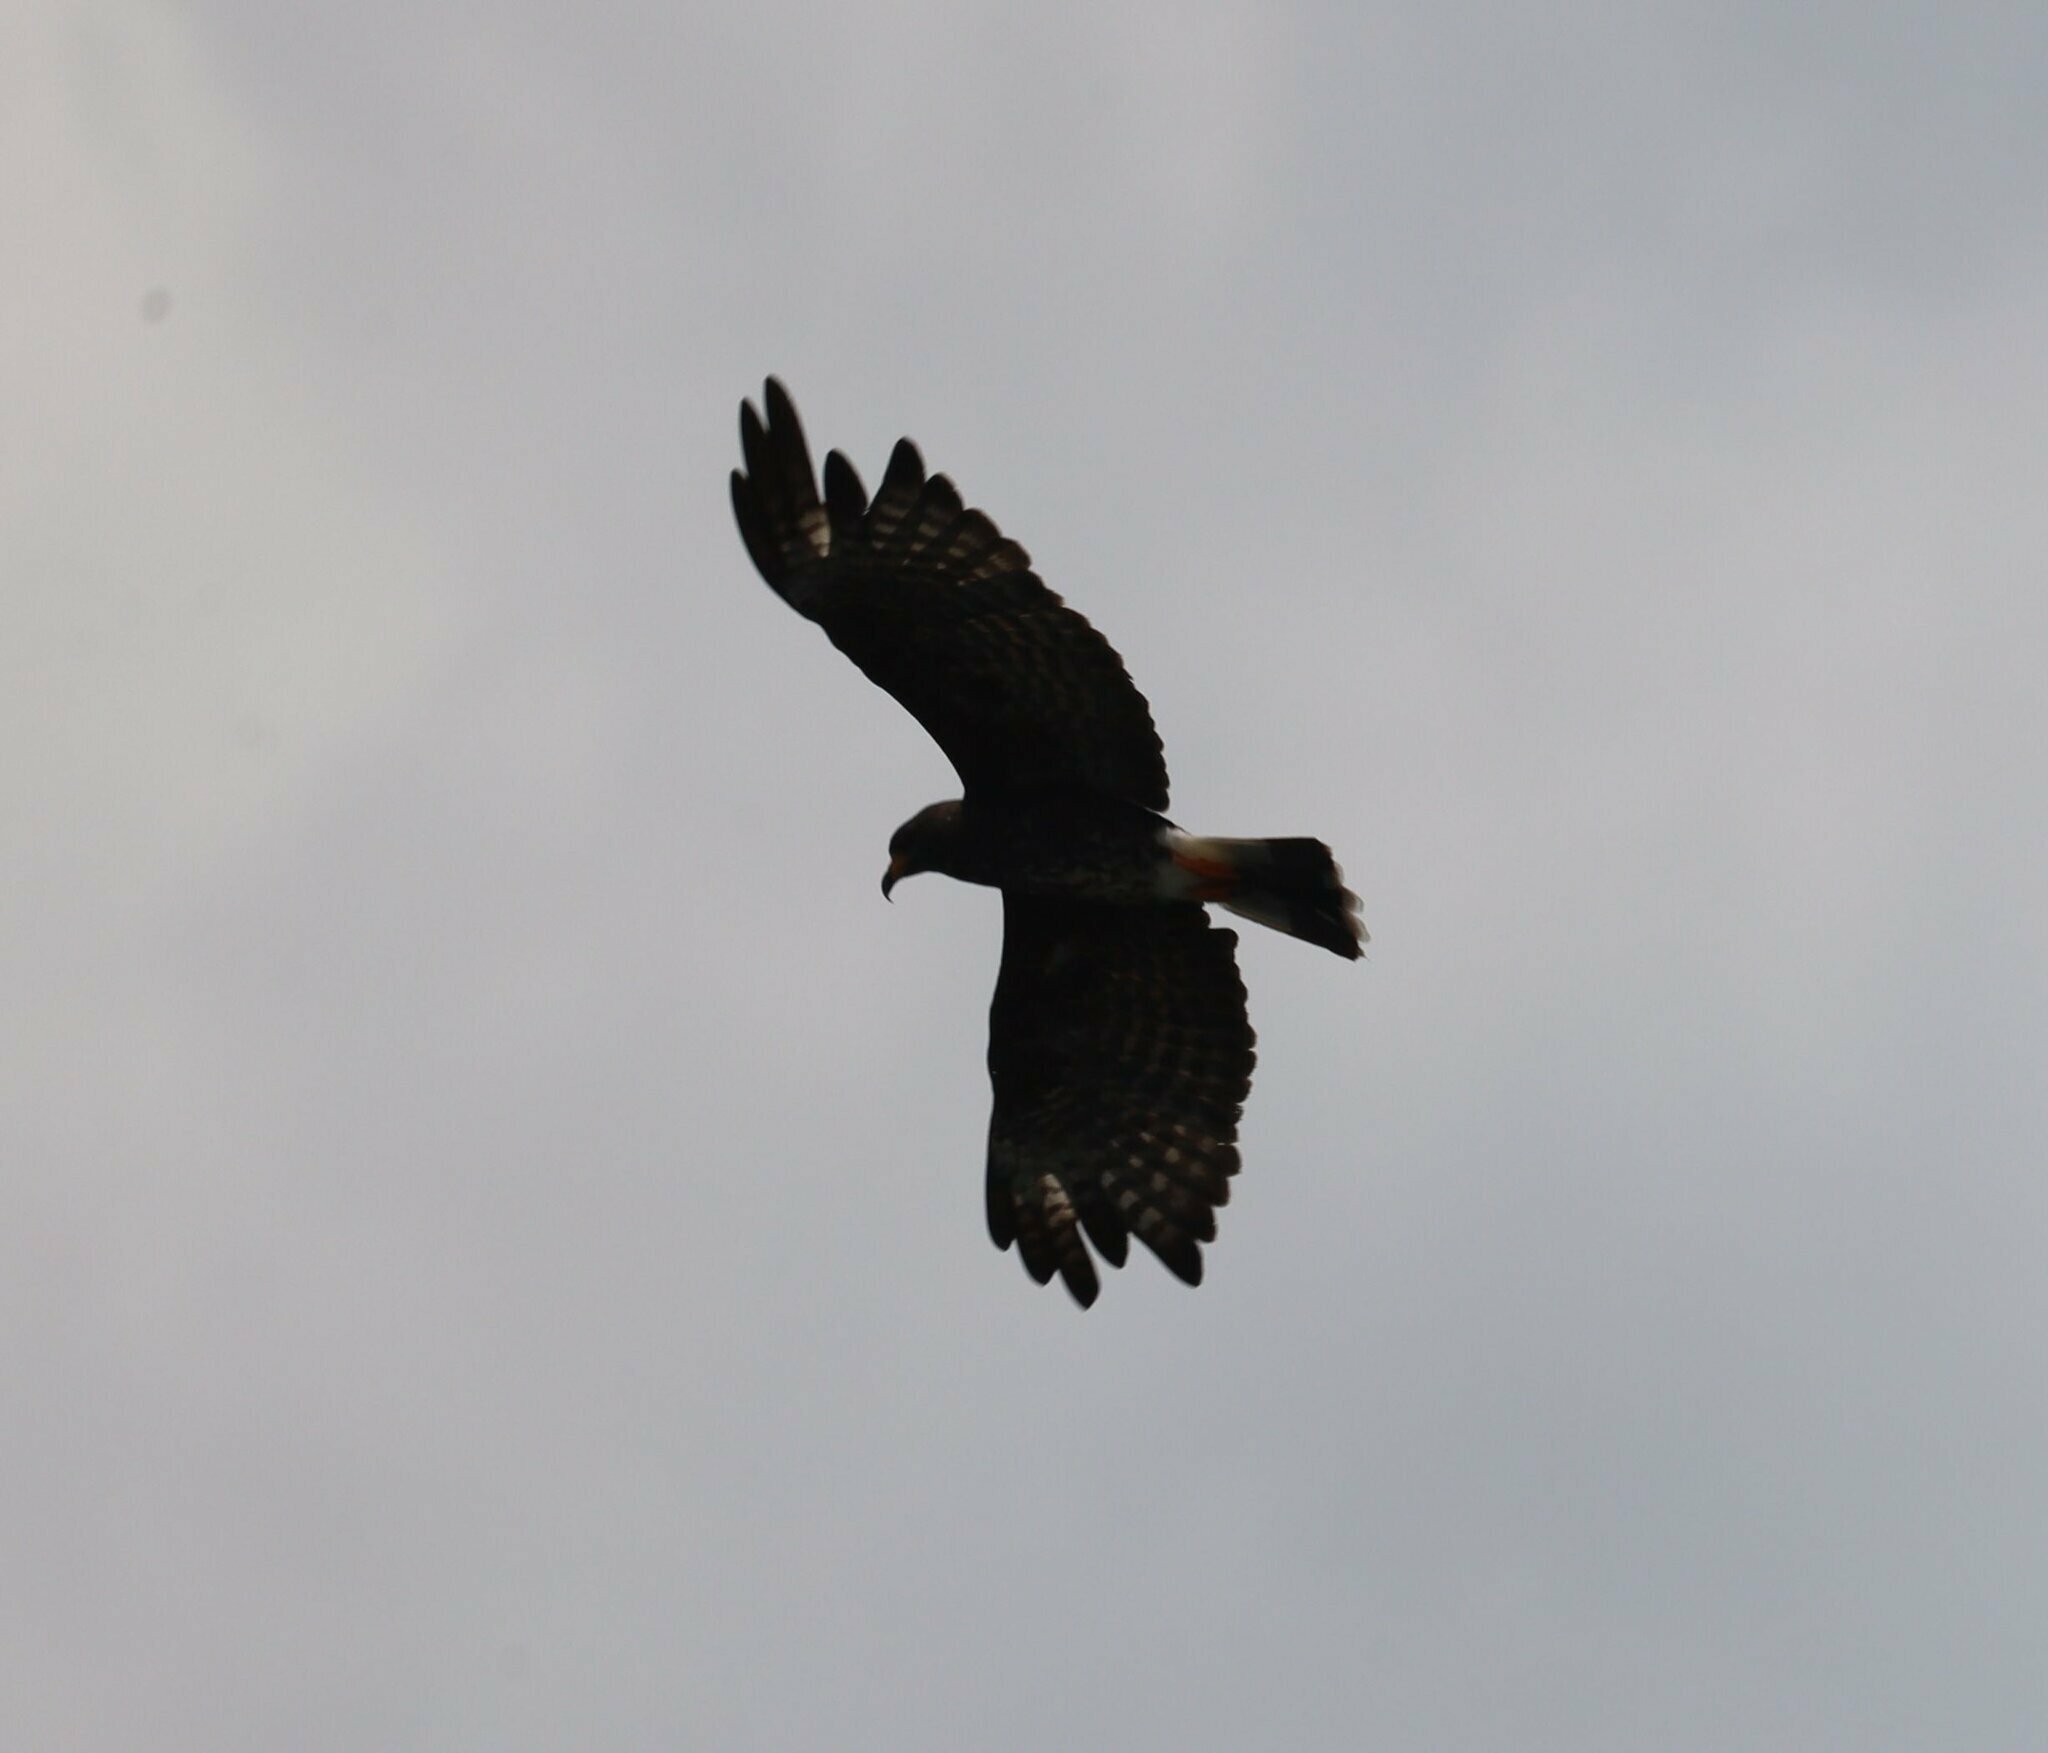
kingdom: Animalia
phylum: Chordata
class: Aves
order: Accipitriformes
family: Accipitridae
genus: Rostrhamus
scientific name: Rostrhamus sociabilis
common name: Snail kite
